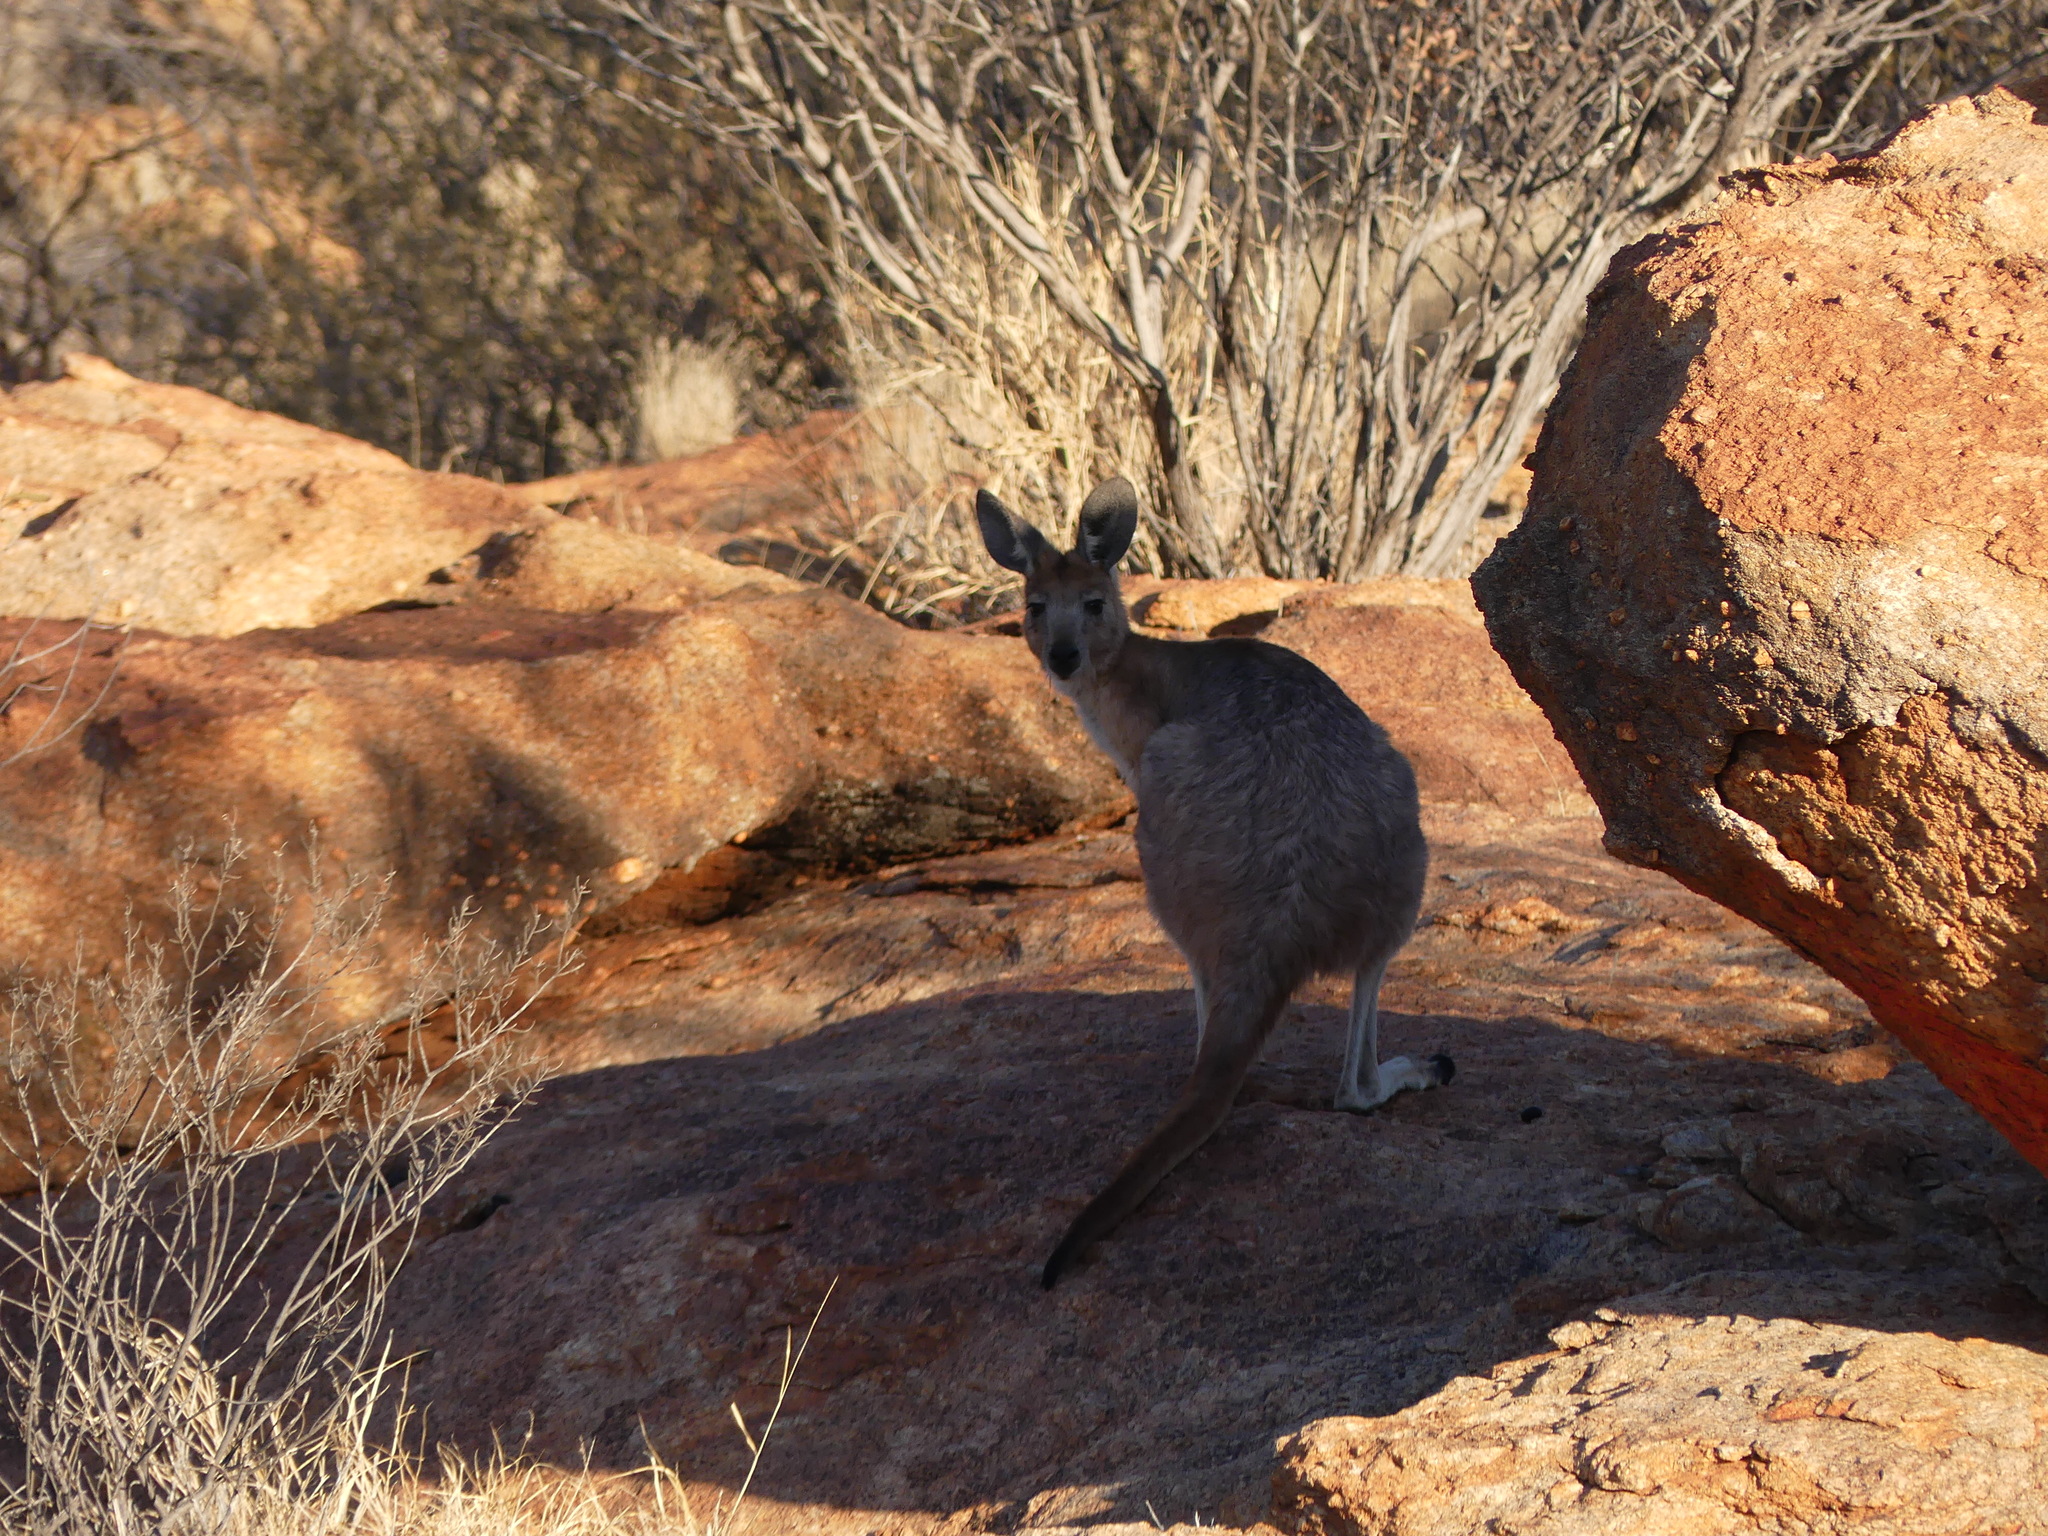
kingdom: Animalia
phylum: Chordata
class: Mammalia
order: Diprotodontia
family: Macropodidae
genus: Macropus
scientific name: Macropus robustus
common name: Eastern wallaroo
